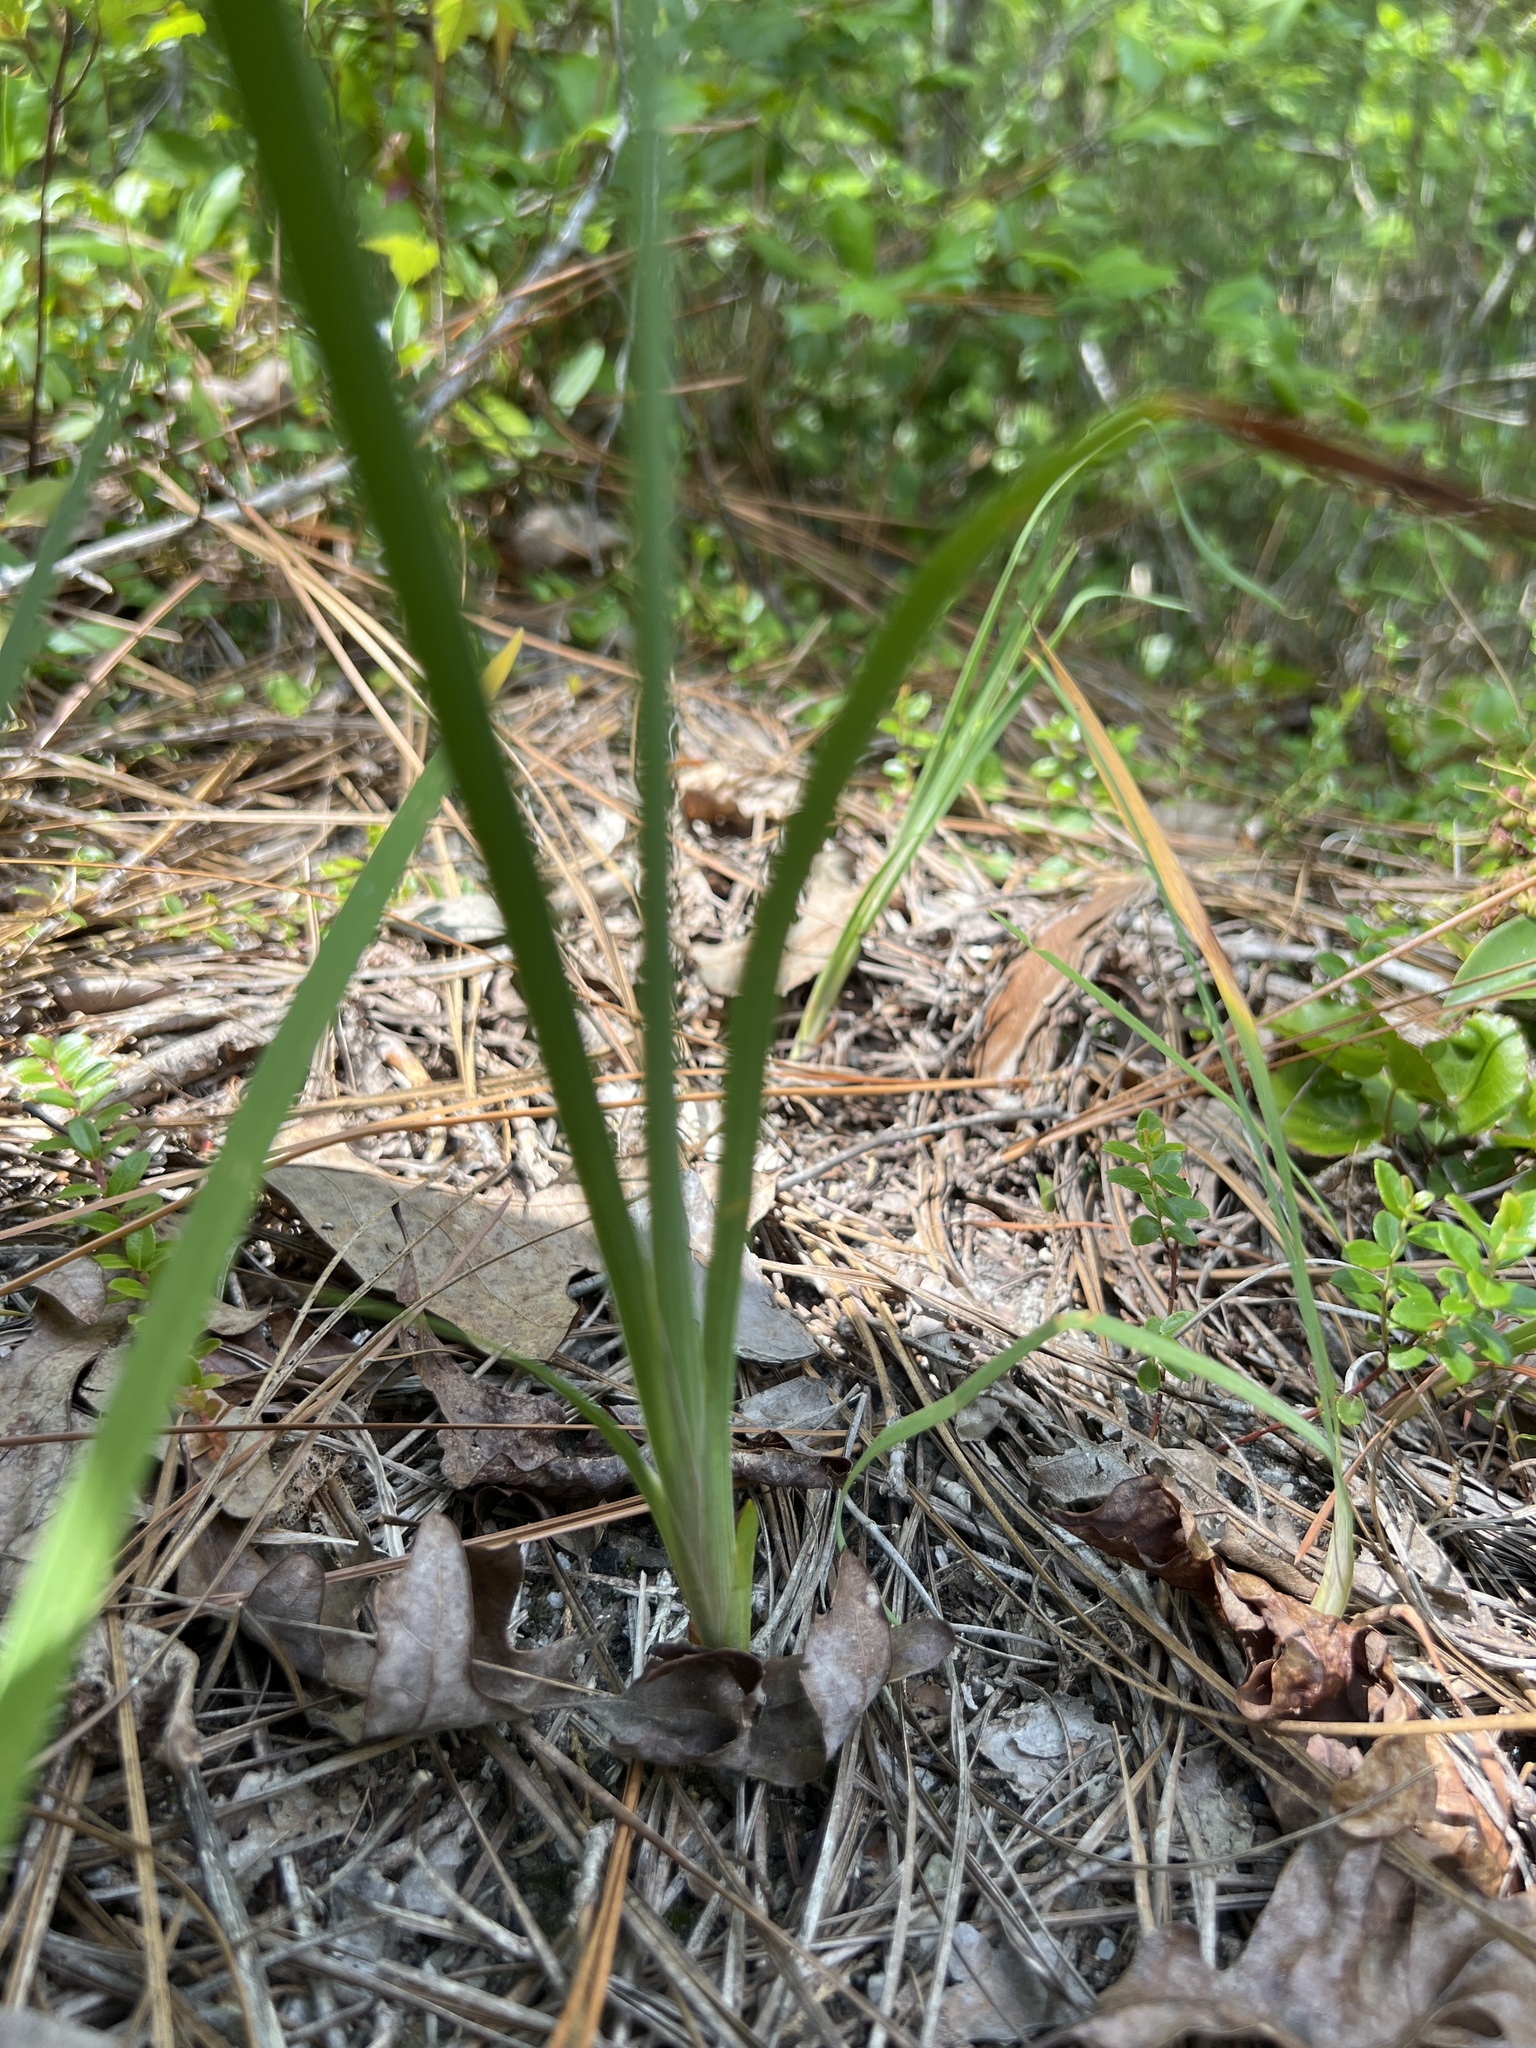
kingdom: Plantae
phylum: Tracheophyta
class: Liliopsida
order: Asparagales
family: Iridaceae
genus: Iris
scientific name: Iris verna
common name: Dwarf iris
